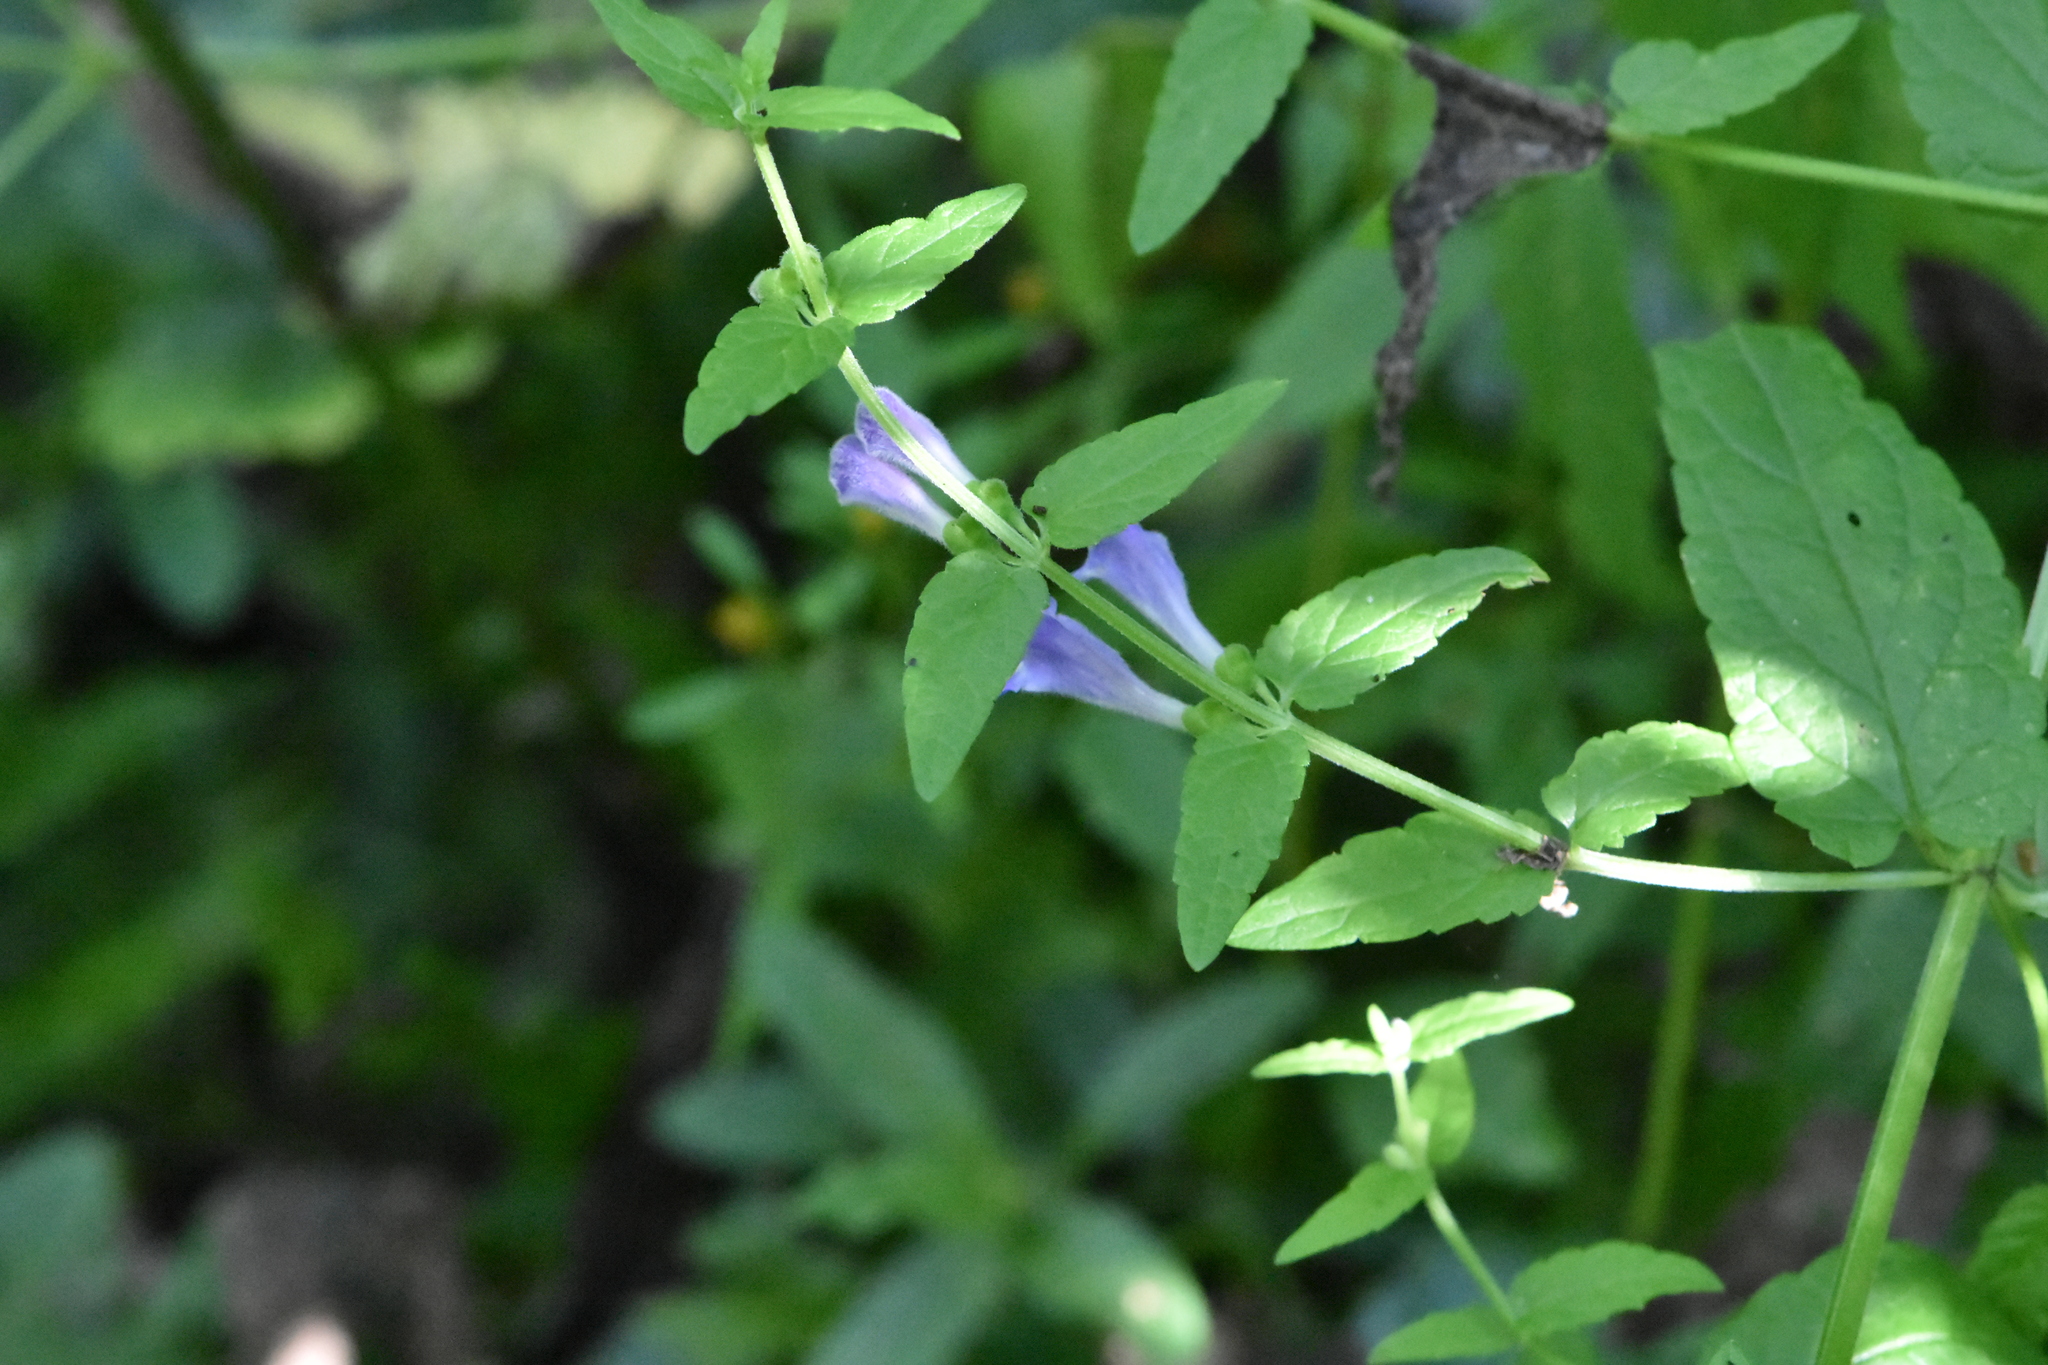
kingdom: Plantae
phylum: Tracheophyta
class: Magnoliopsida
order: Lamiales
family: Lamiaceae
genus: Scutellaria
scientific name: Scutellaria galericulata
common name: Skullcap
